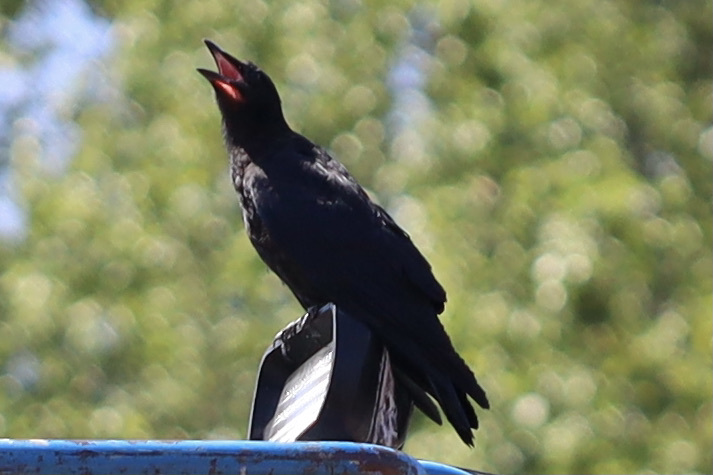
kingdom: Animalia
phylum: Chordata
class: Aves
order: Passeriformes
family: Corvidae
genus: Corvus
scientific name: Corvus brachyrhynchos
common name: American crow
